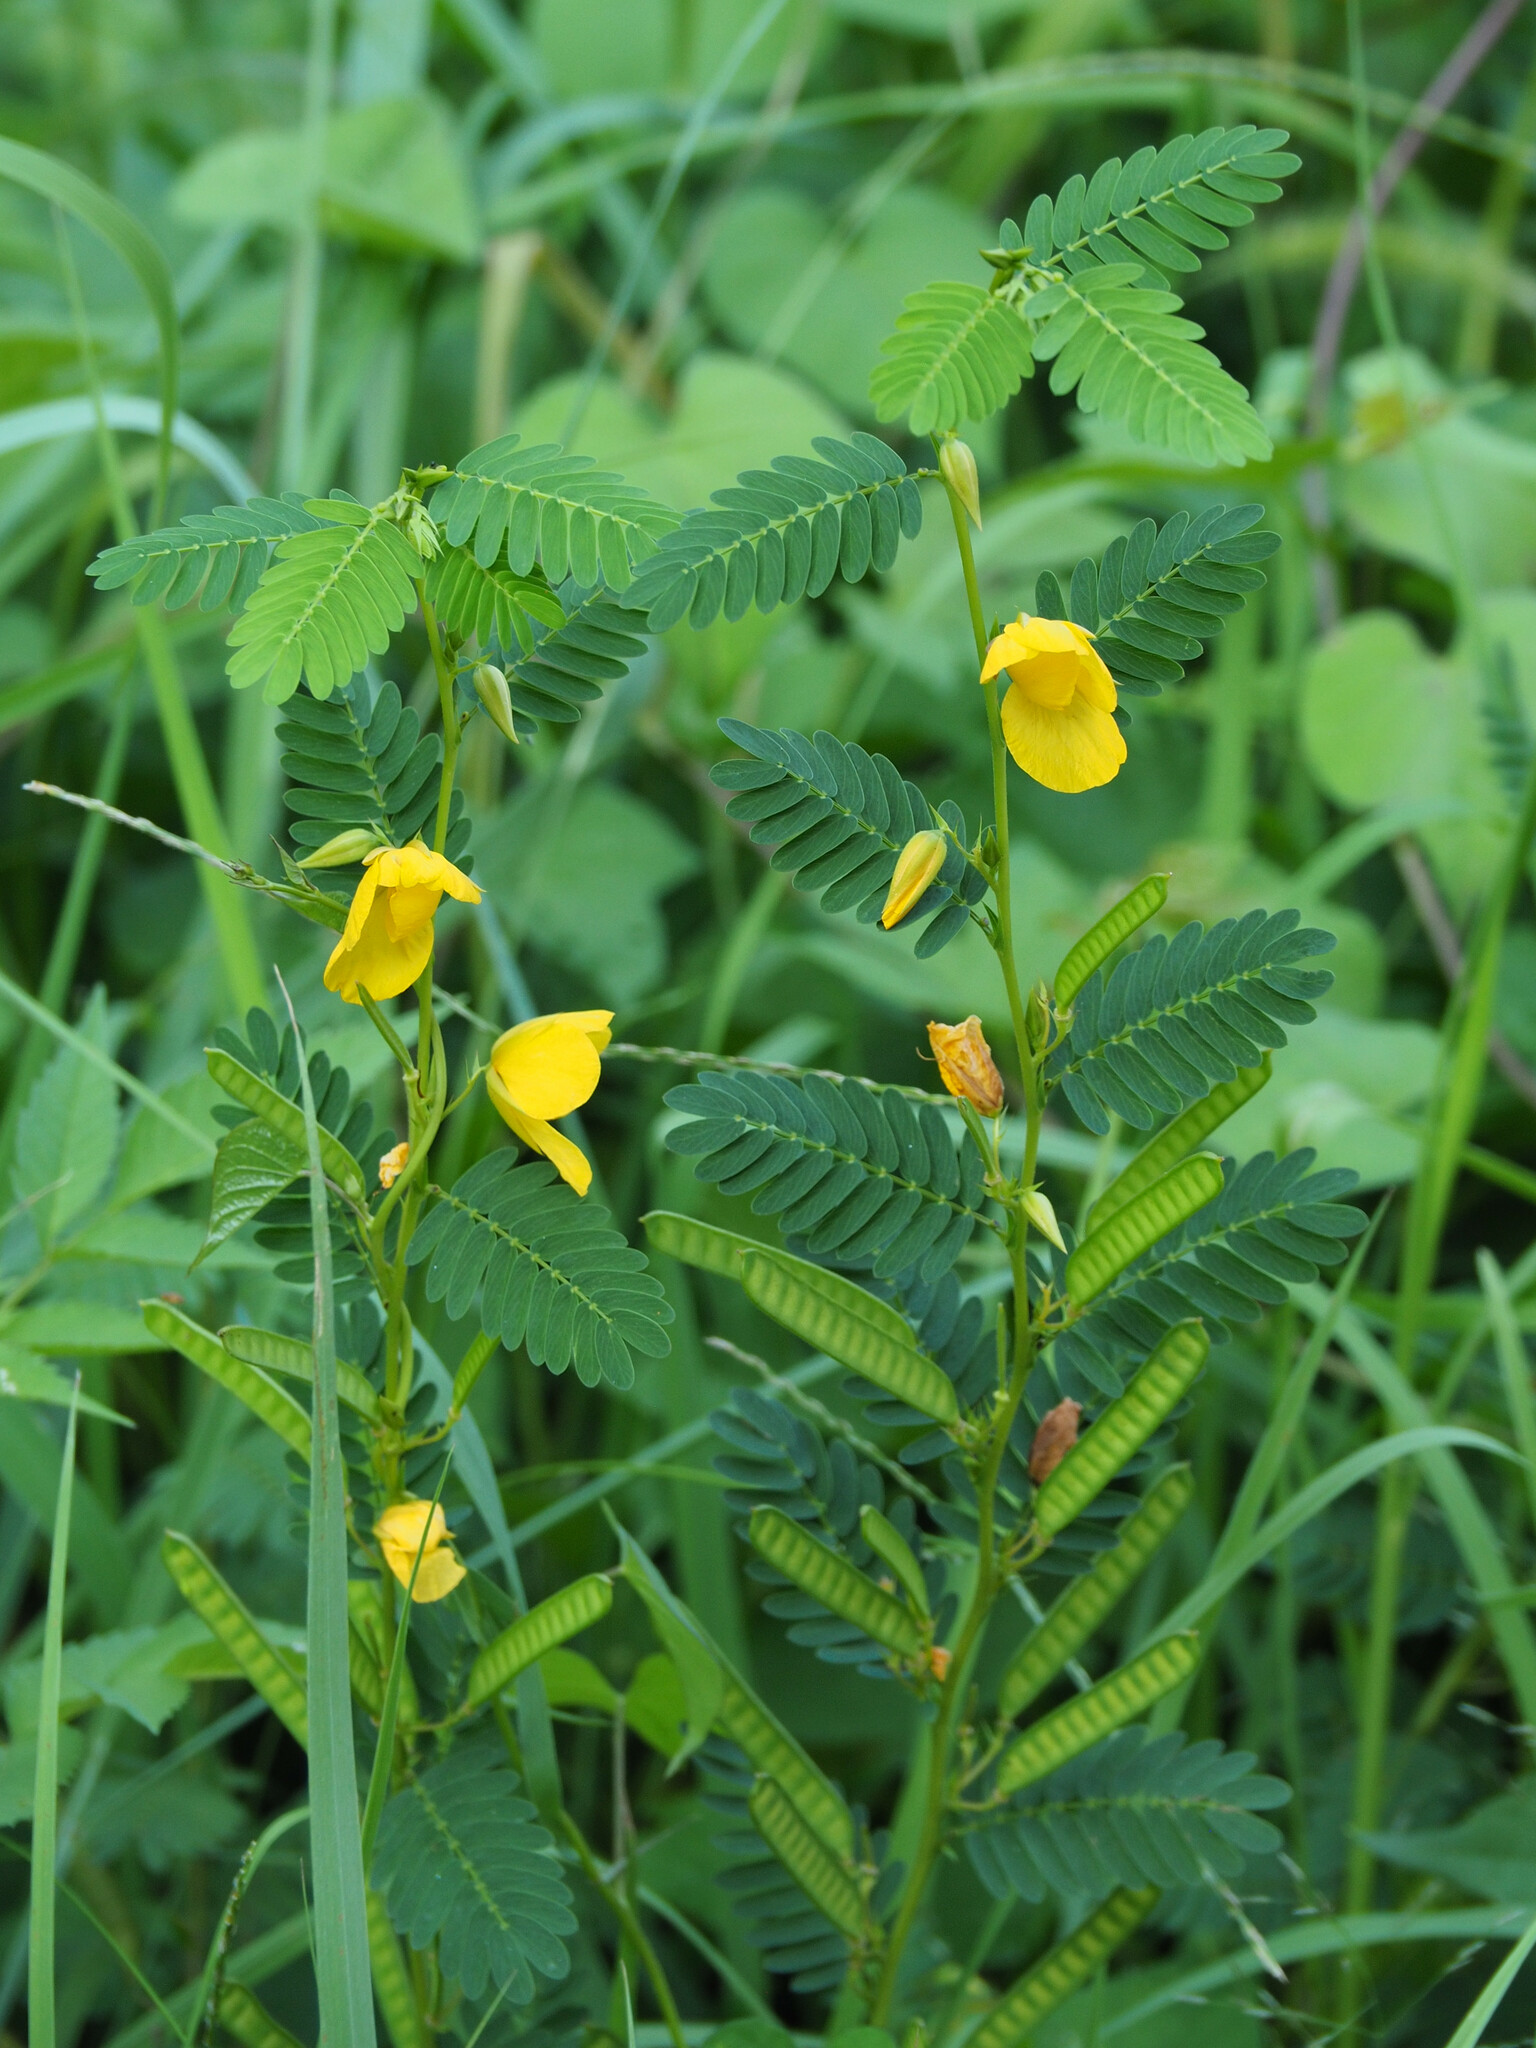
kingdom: Plantae
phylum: Tracheophyta
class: Magnoliopsida
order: Fabales
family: Fabaceae
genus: Chamaecrista
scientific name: Chamaecrista fasciculata
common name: Golden cassia
